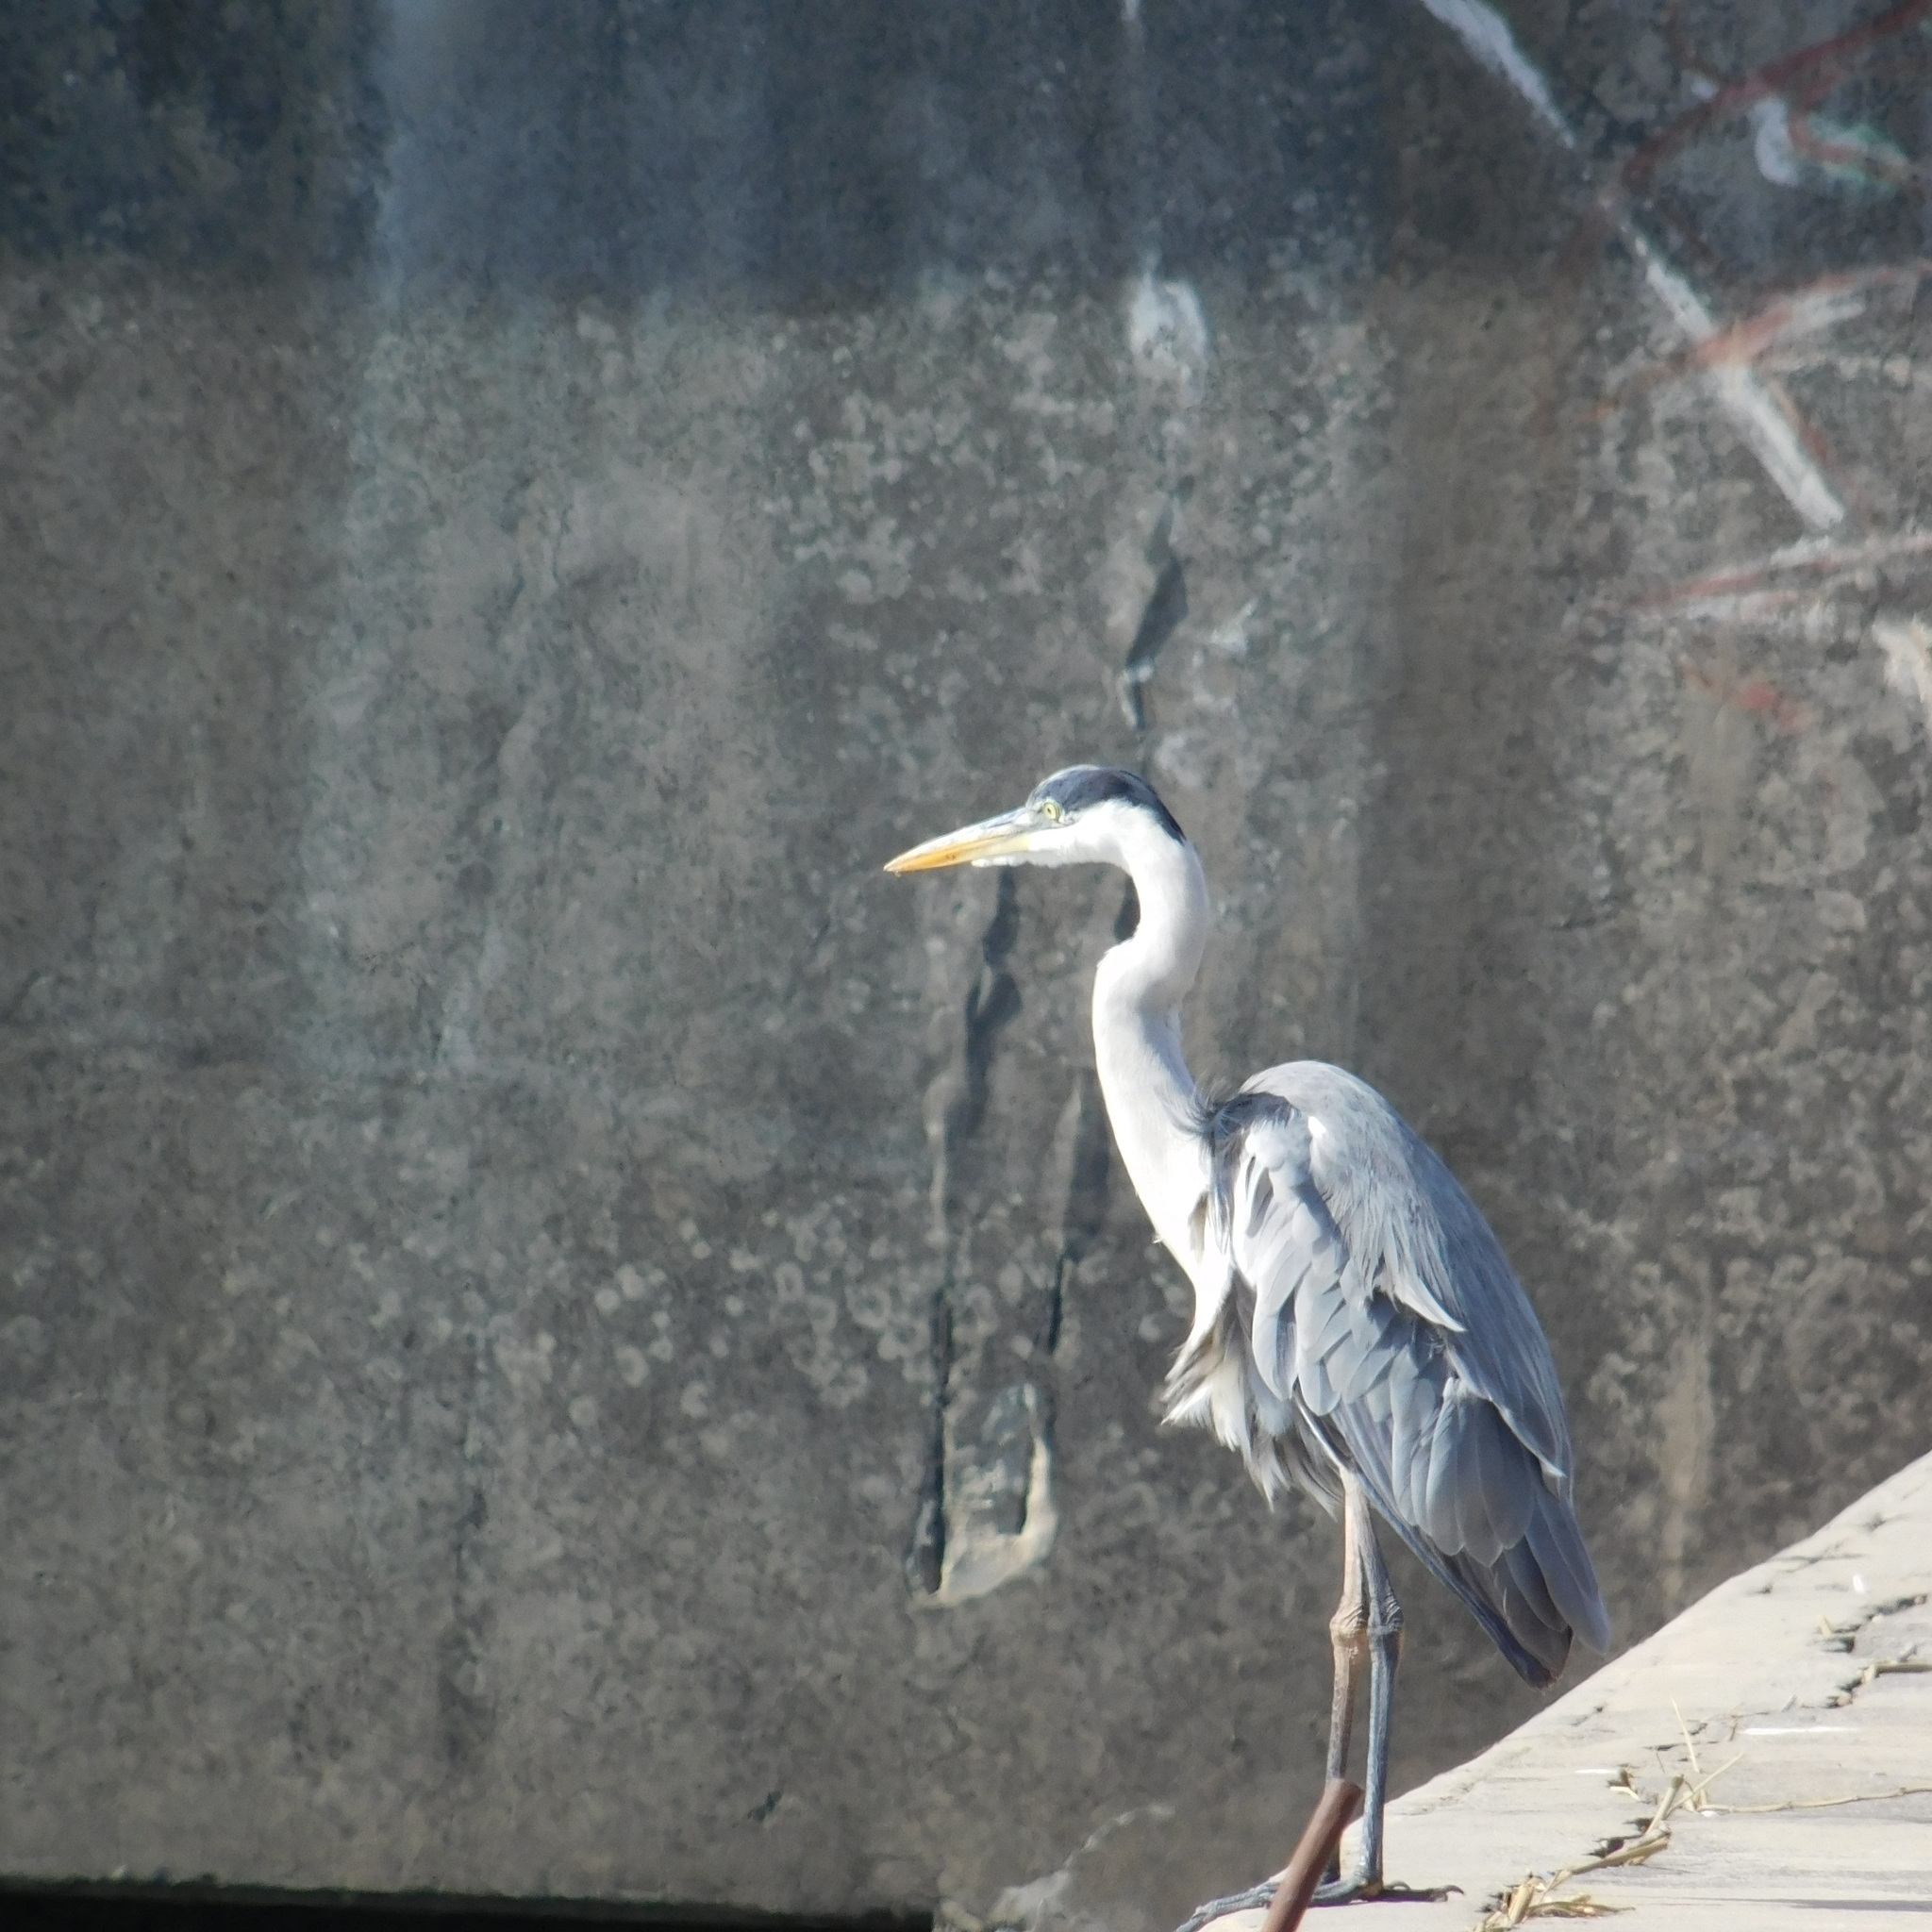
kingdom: Animalia
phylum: Chordata
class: Aves
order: Pelecaniformes
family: Ardeidae
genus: Ardea
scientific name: Ardea cocoi
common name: Cocoi heron
